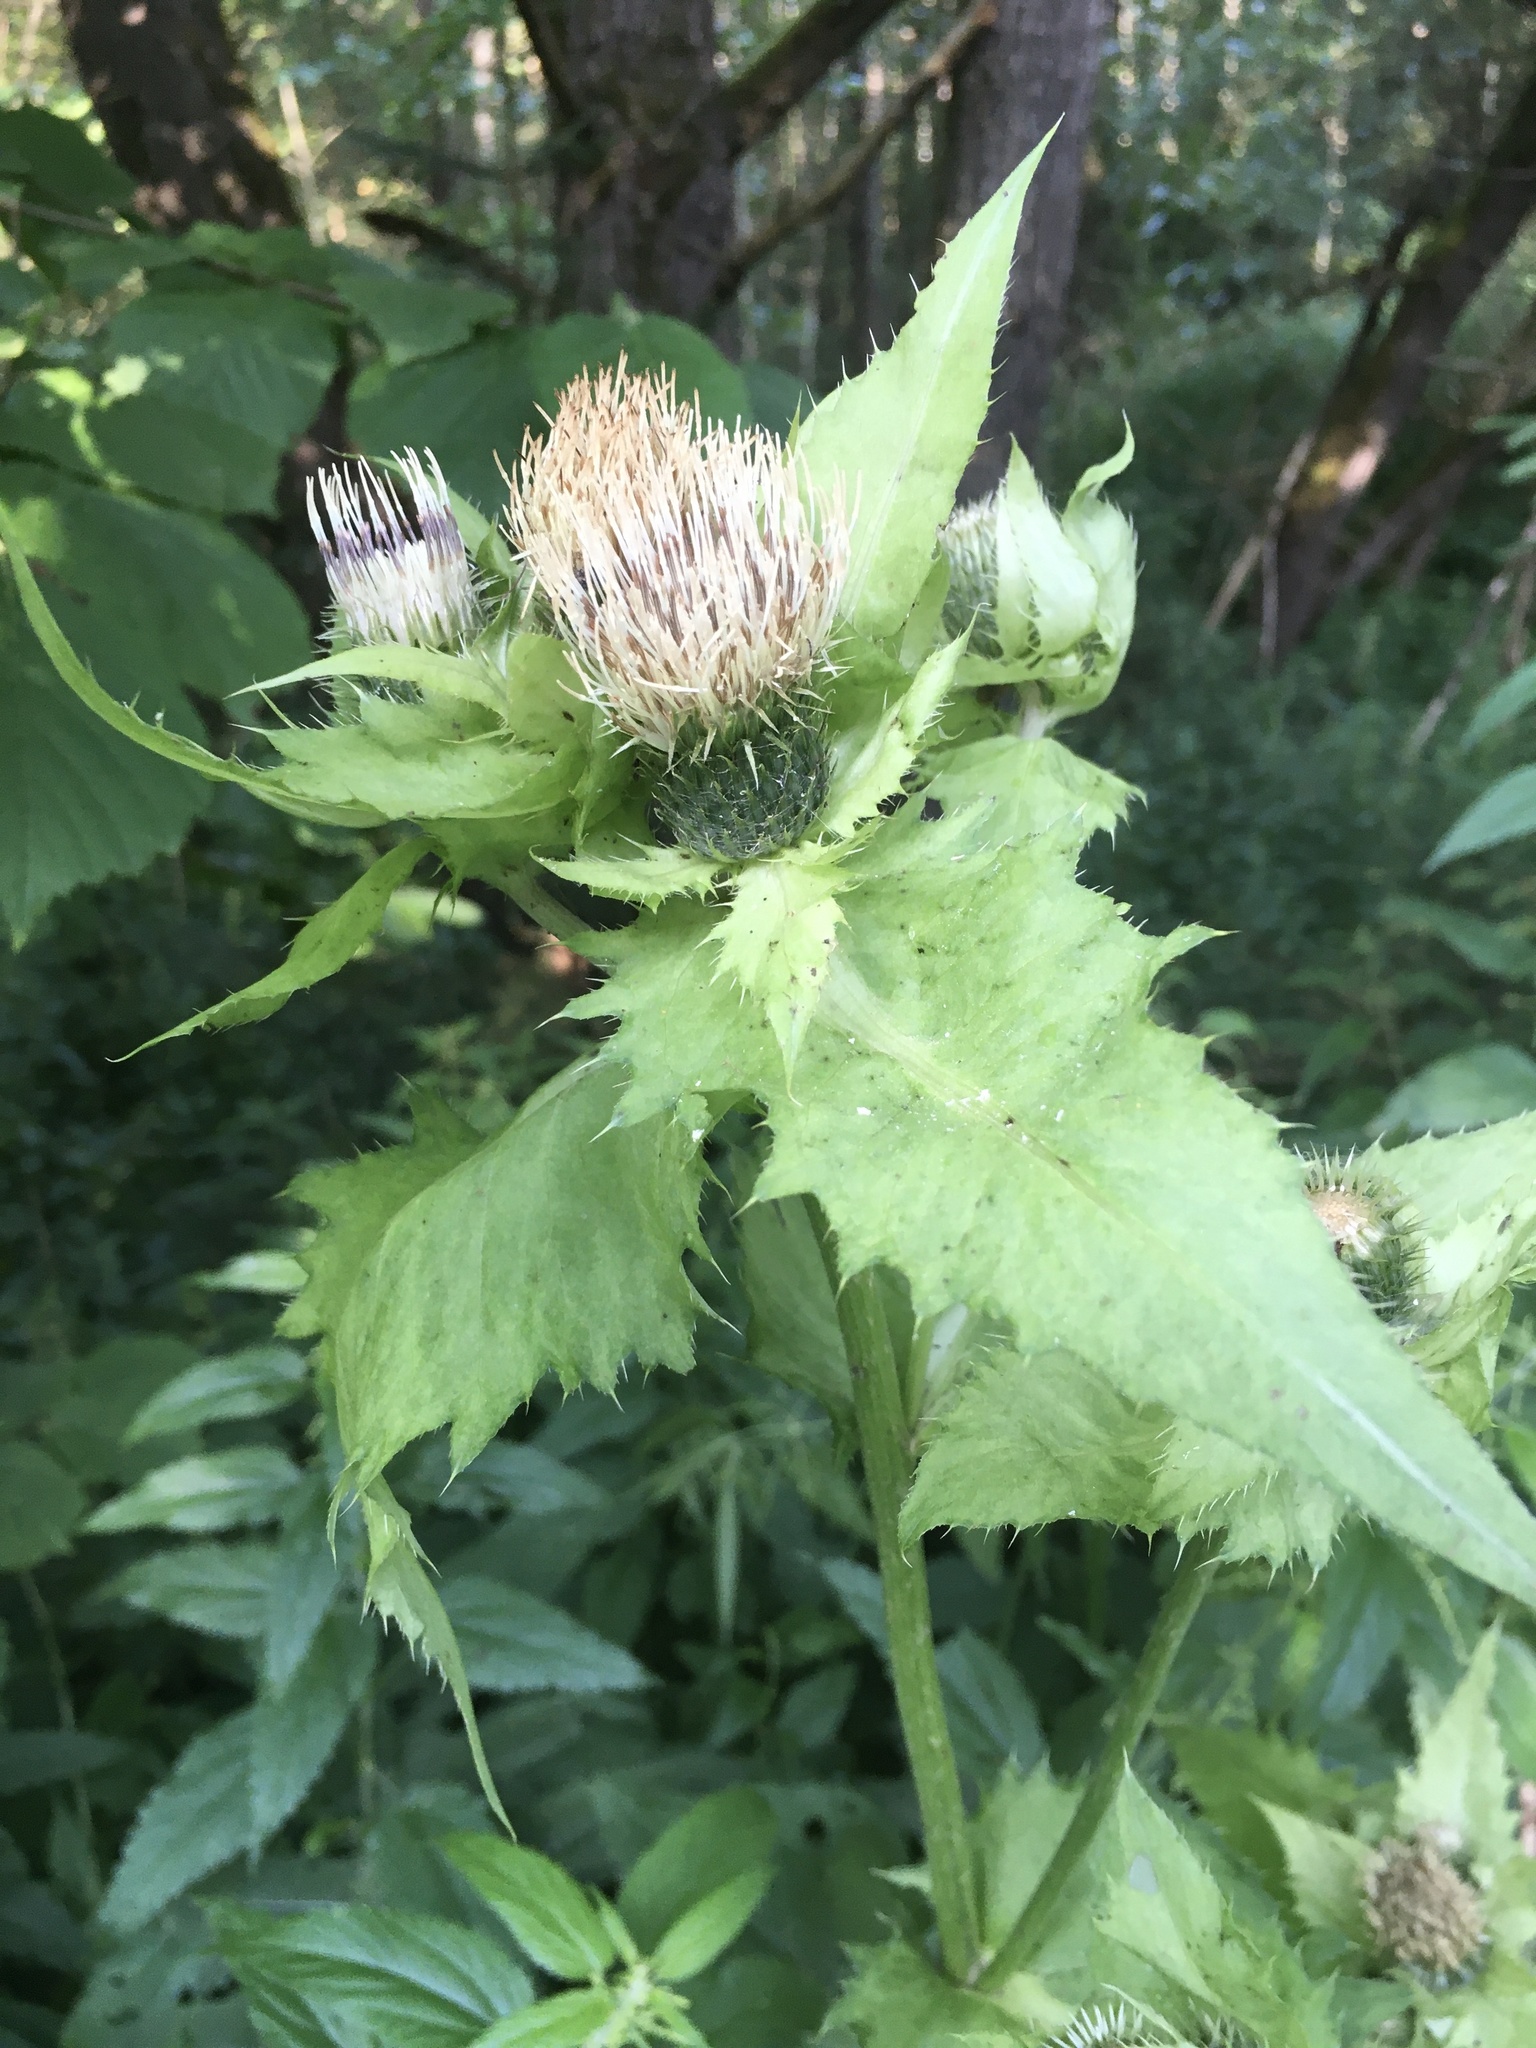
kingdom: Plantae
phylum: Tracheophyta
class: Magnoliopsida
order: Asterales
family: Asteraceae
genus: Cirsium
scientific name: Cirsium oleraceum
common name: Cabbage thistle
